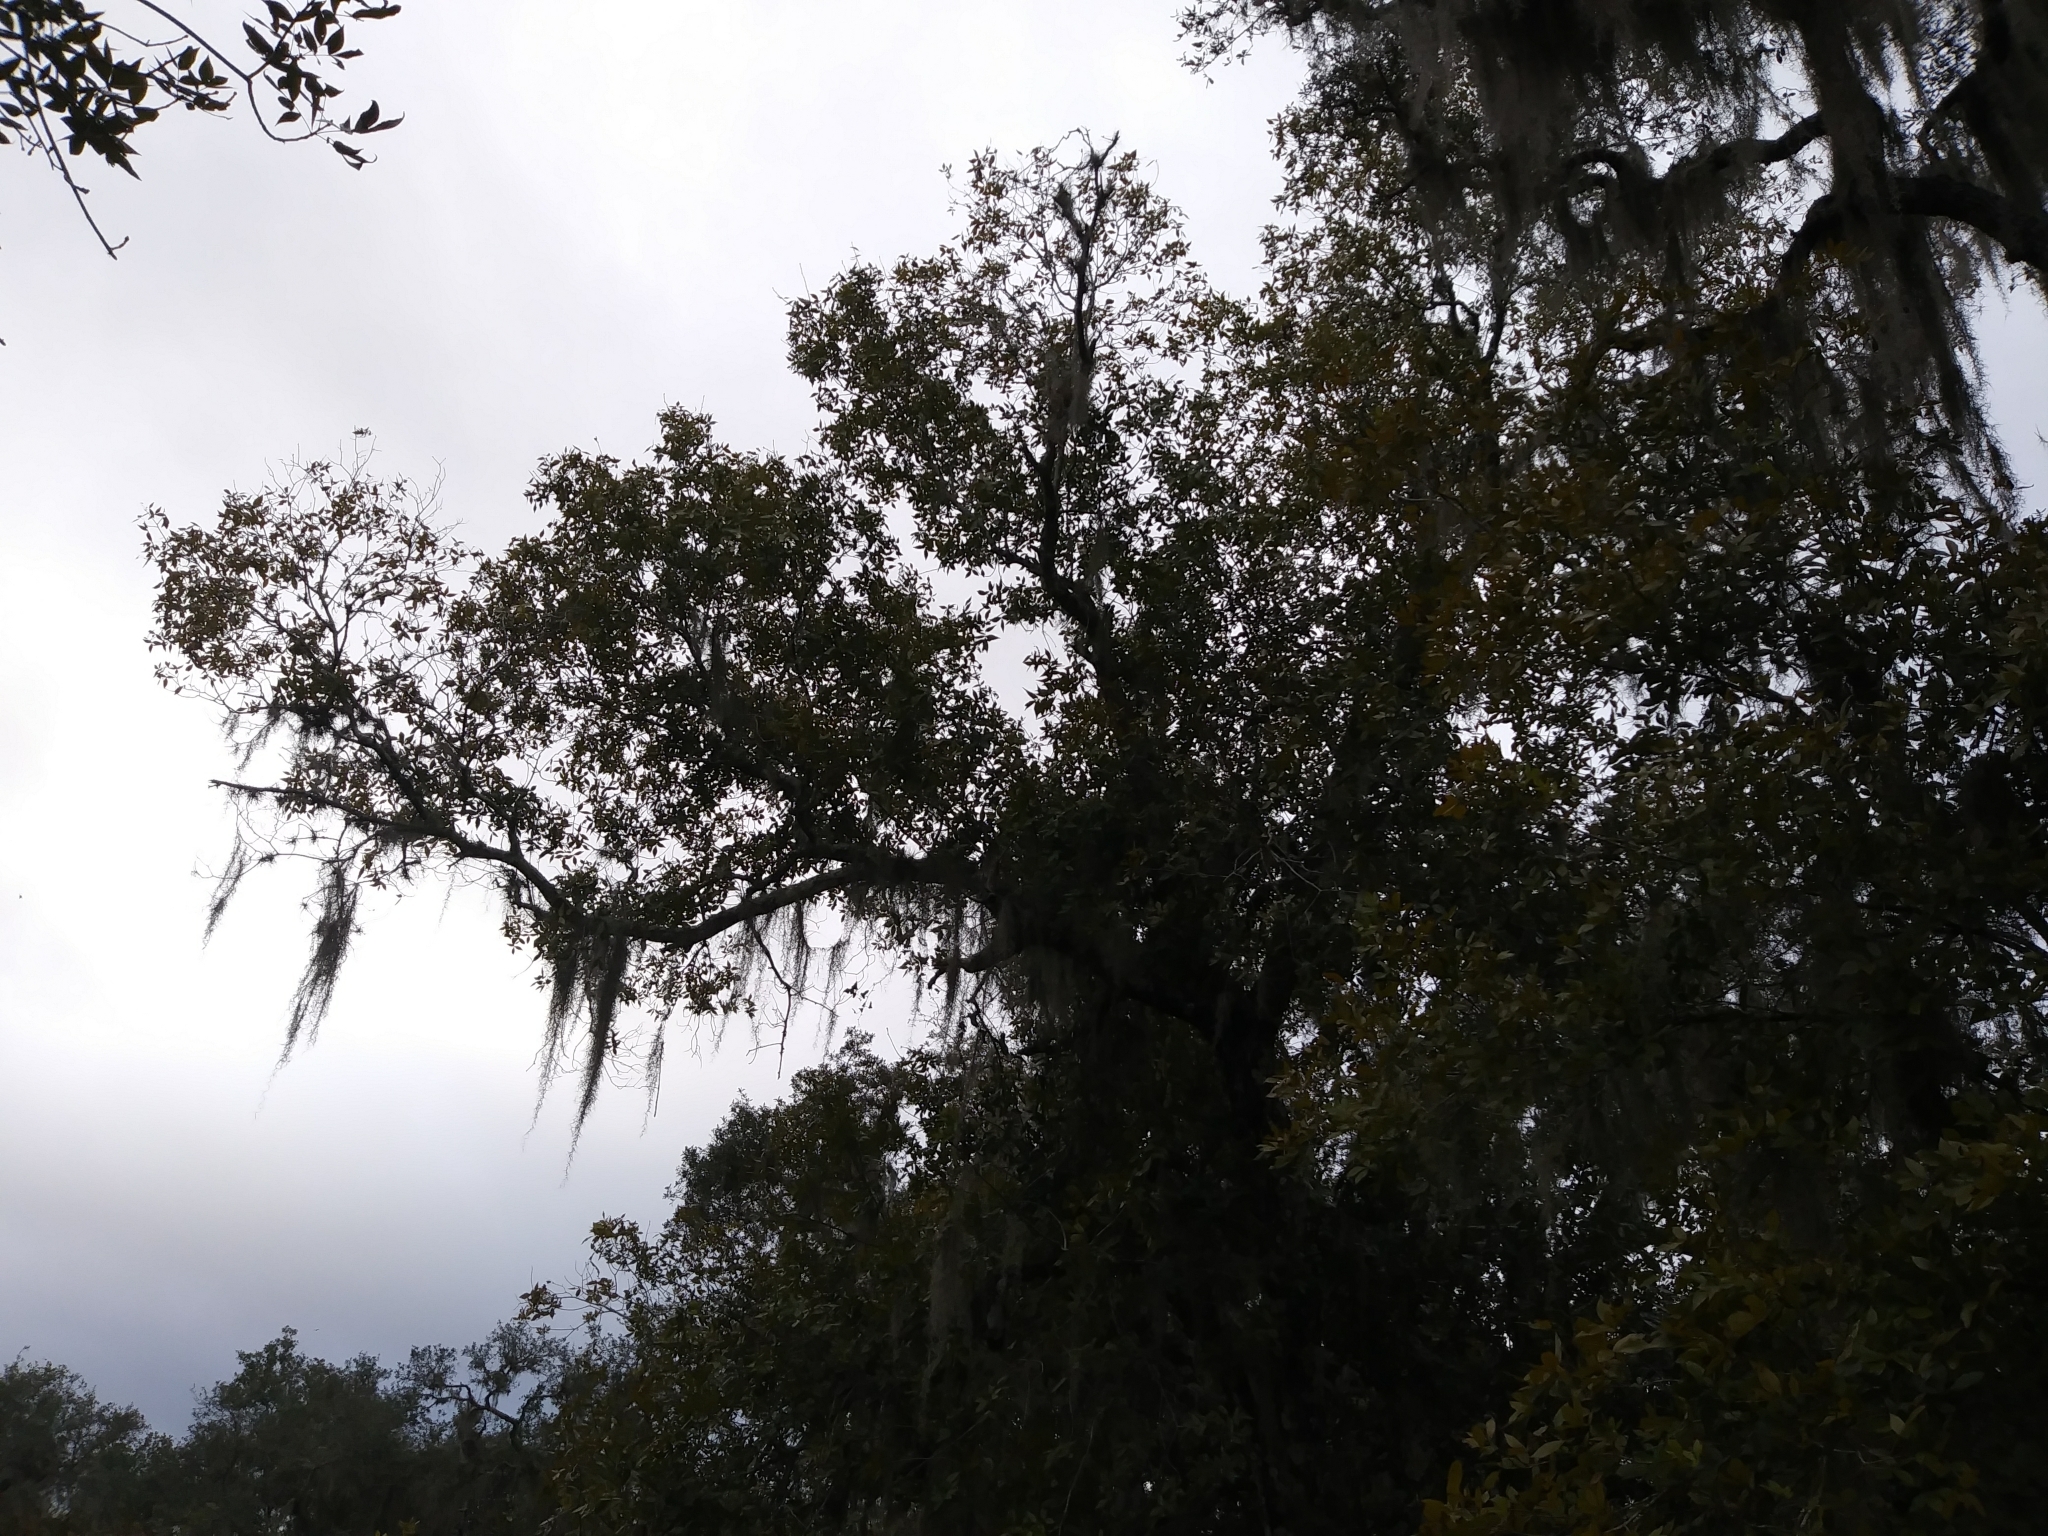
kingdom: Plantae
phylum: Tracheophyta
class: Magnoliopsida
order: Fagales
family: Juglandaceae
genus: Carya
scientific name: Carya floridana
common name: Scrub hickory
